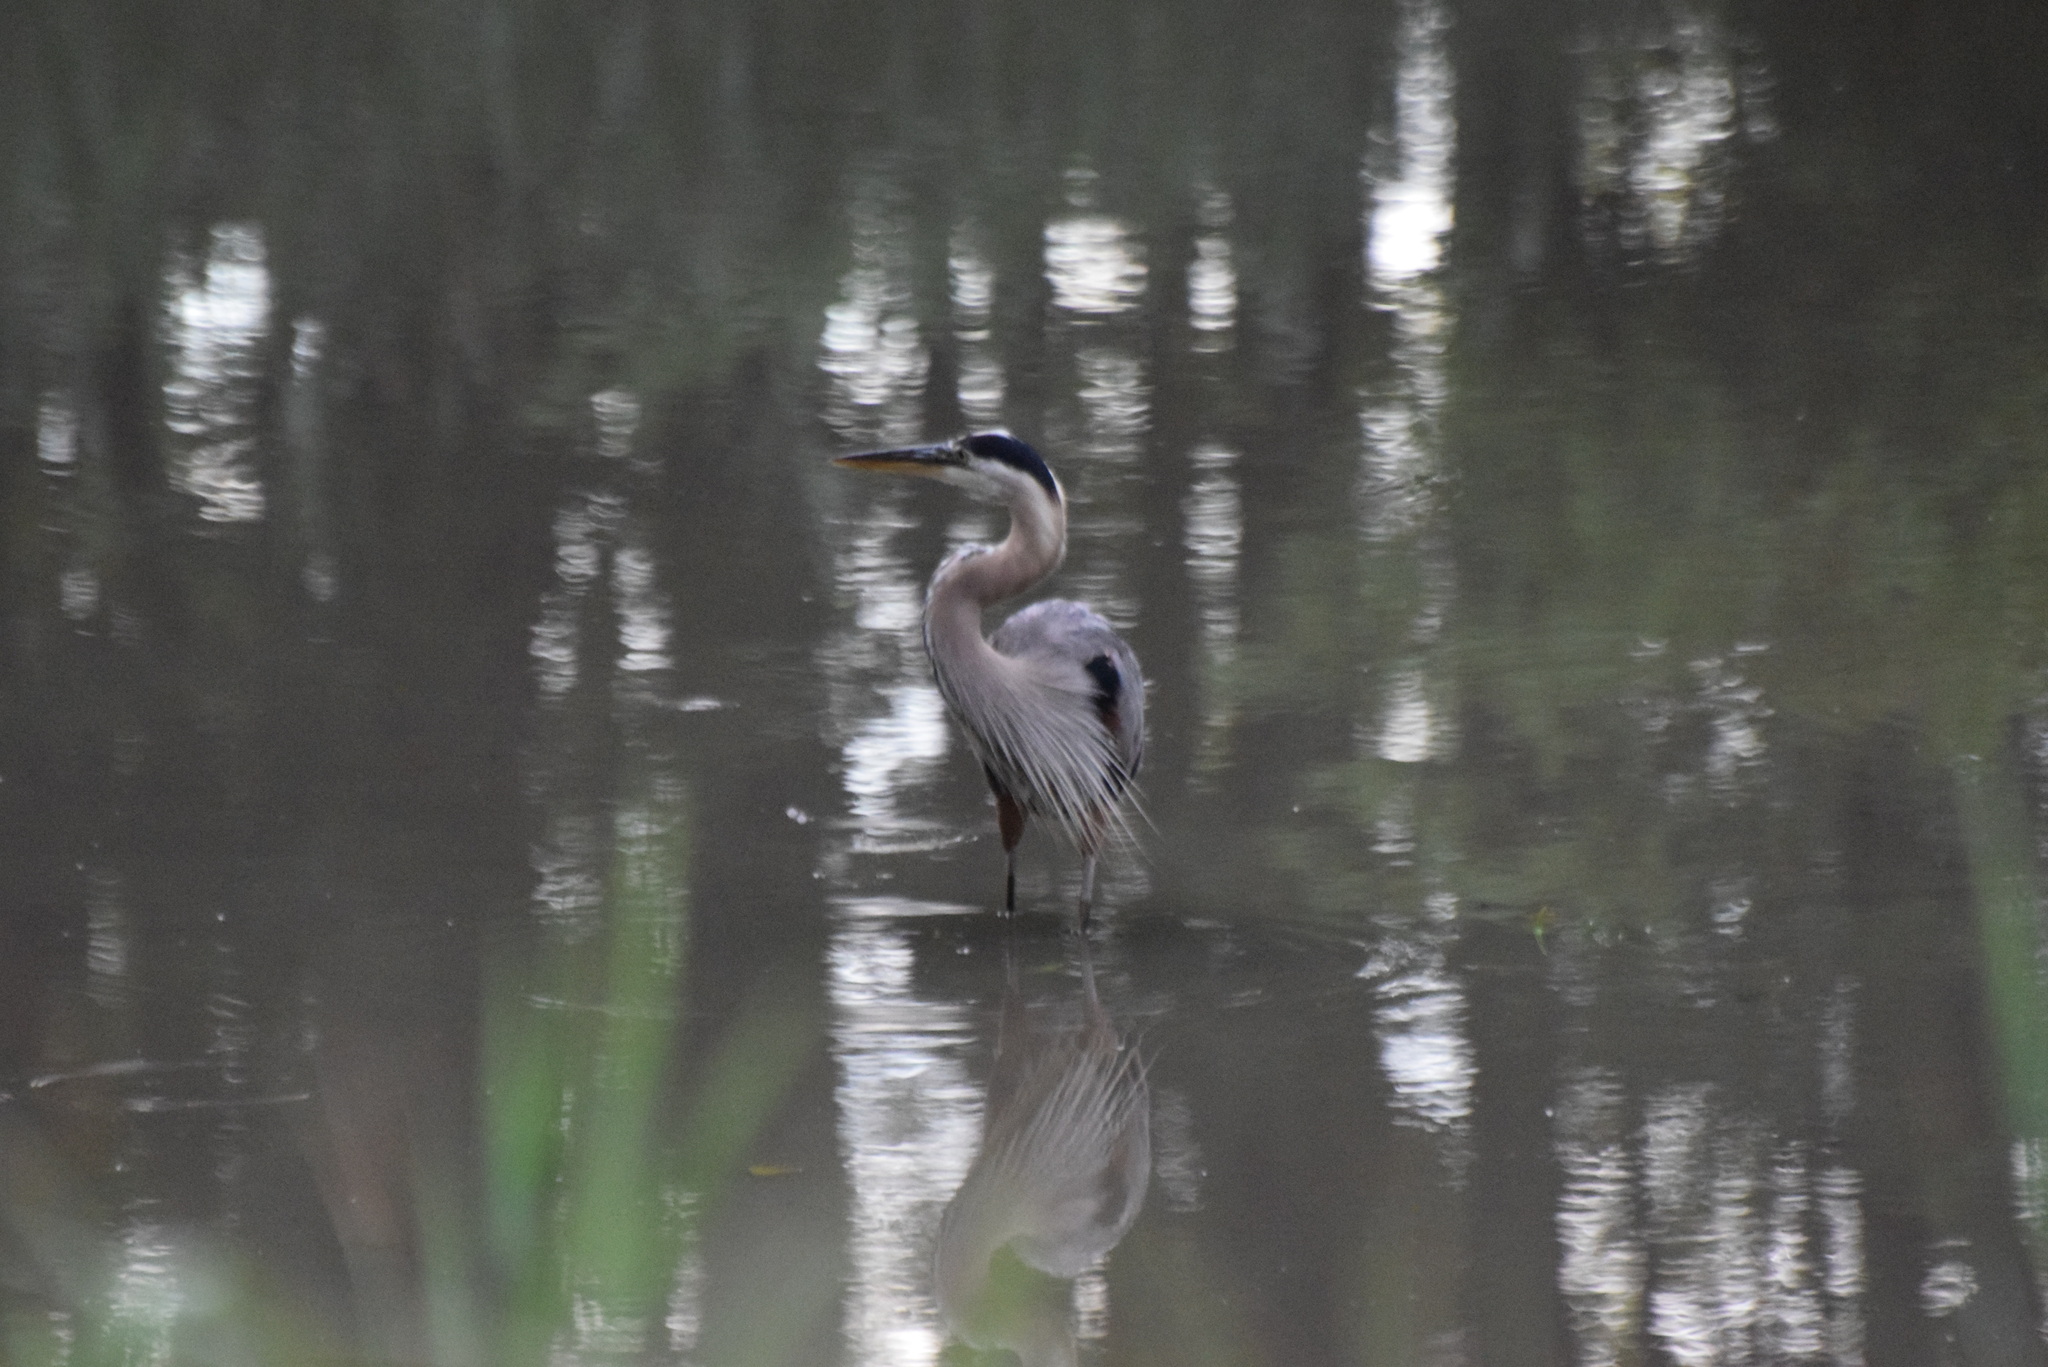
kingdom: Animalia
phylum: Chordata
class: Aves
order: Pelecaniformes
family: Ardeidae
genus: Ardea
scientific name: Ardea herodias
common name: Great blue heron
